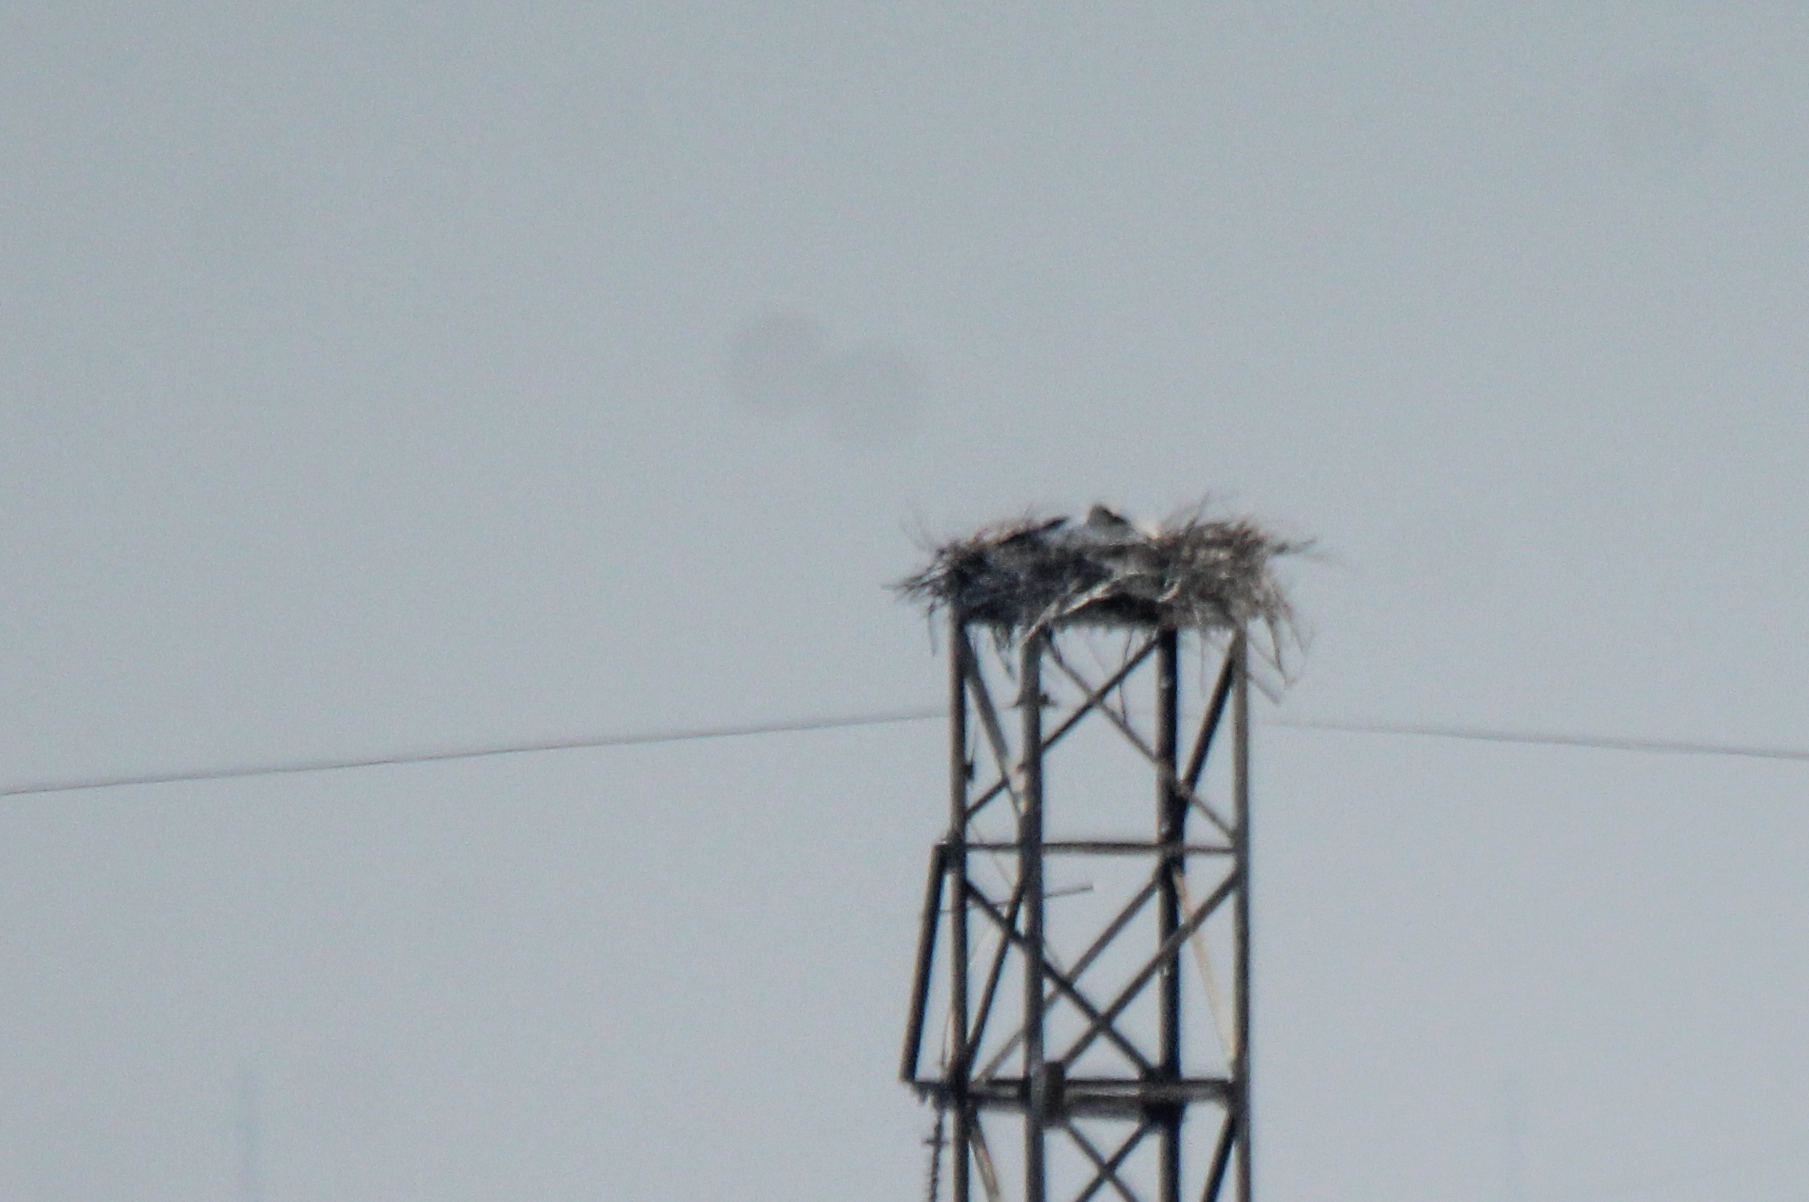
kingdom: Animalia
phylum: Chordata
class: Aves
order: Ciconiiformes
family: Ciconiidae
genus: Ciconia
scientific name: Ciconia boyciana
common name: Oriental stork
